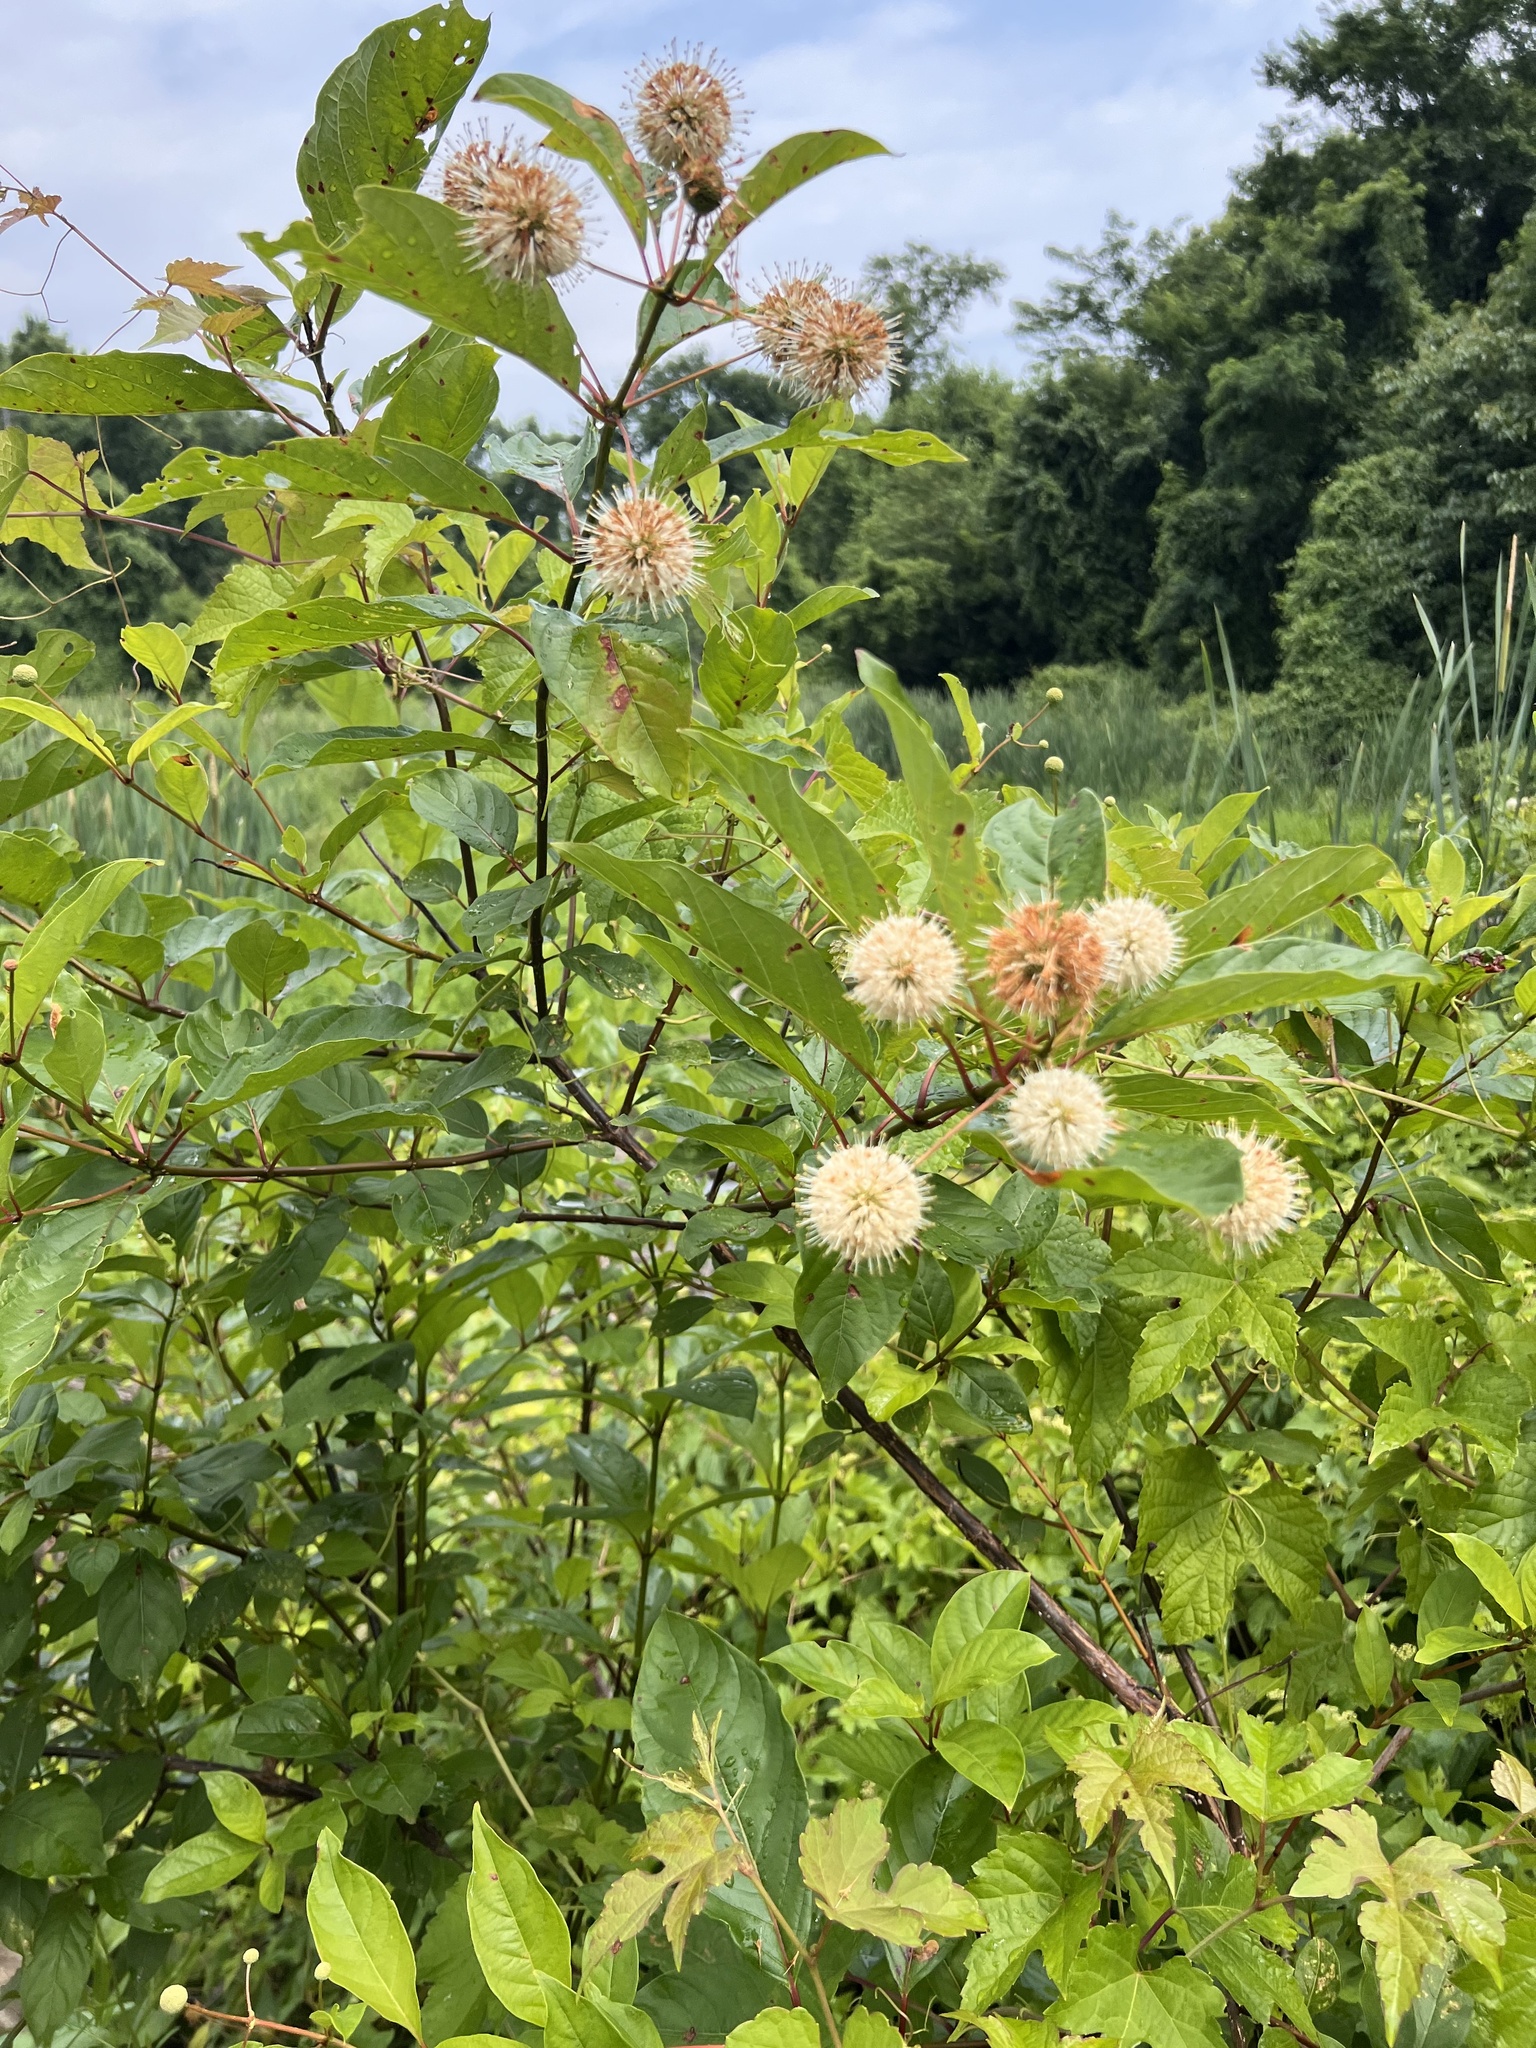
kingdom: Plantae
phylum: Tracheophyta
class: Magnoliopsida
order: Gentianales
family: Rubiaceae
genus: Cephalanthus
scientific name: Cephalanthus occidentalis
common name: Button-willow
